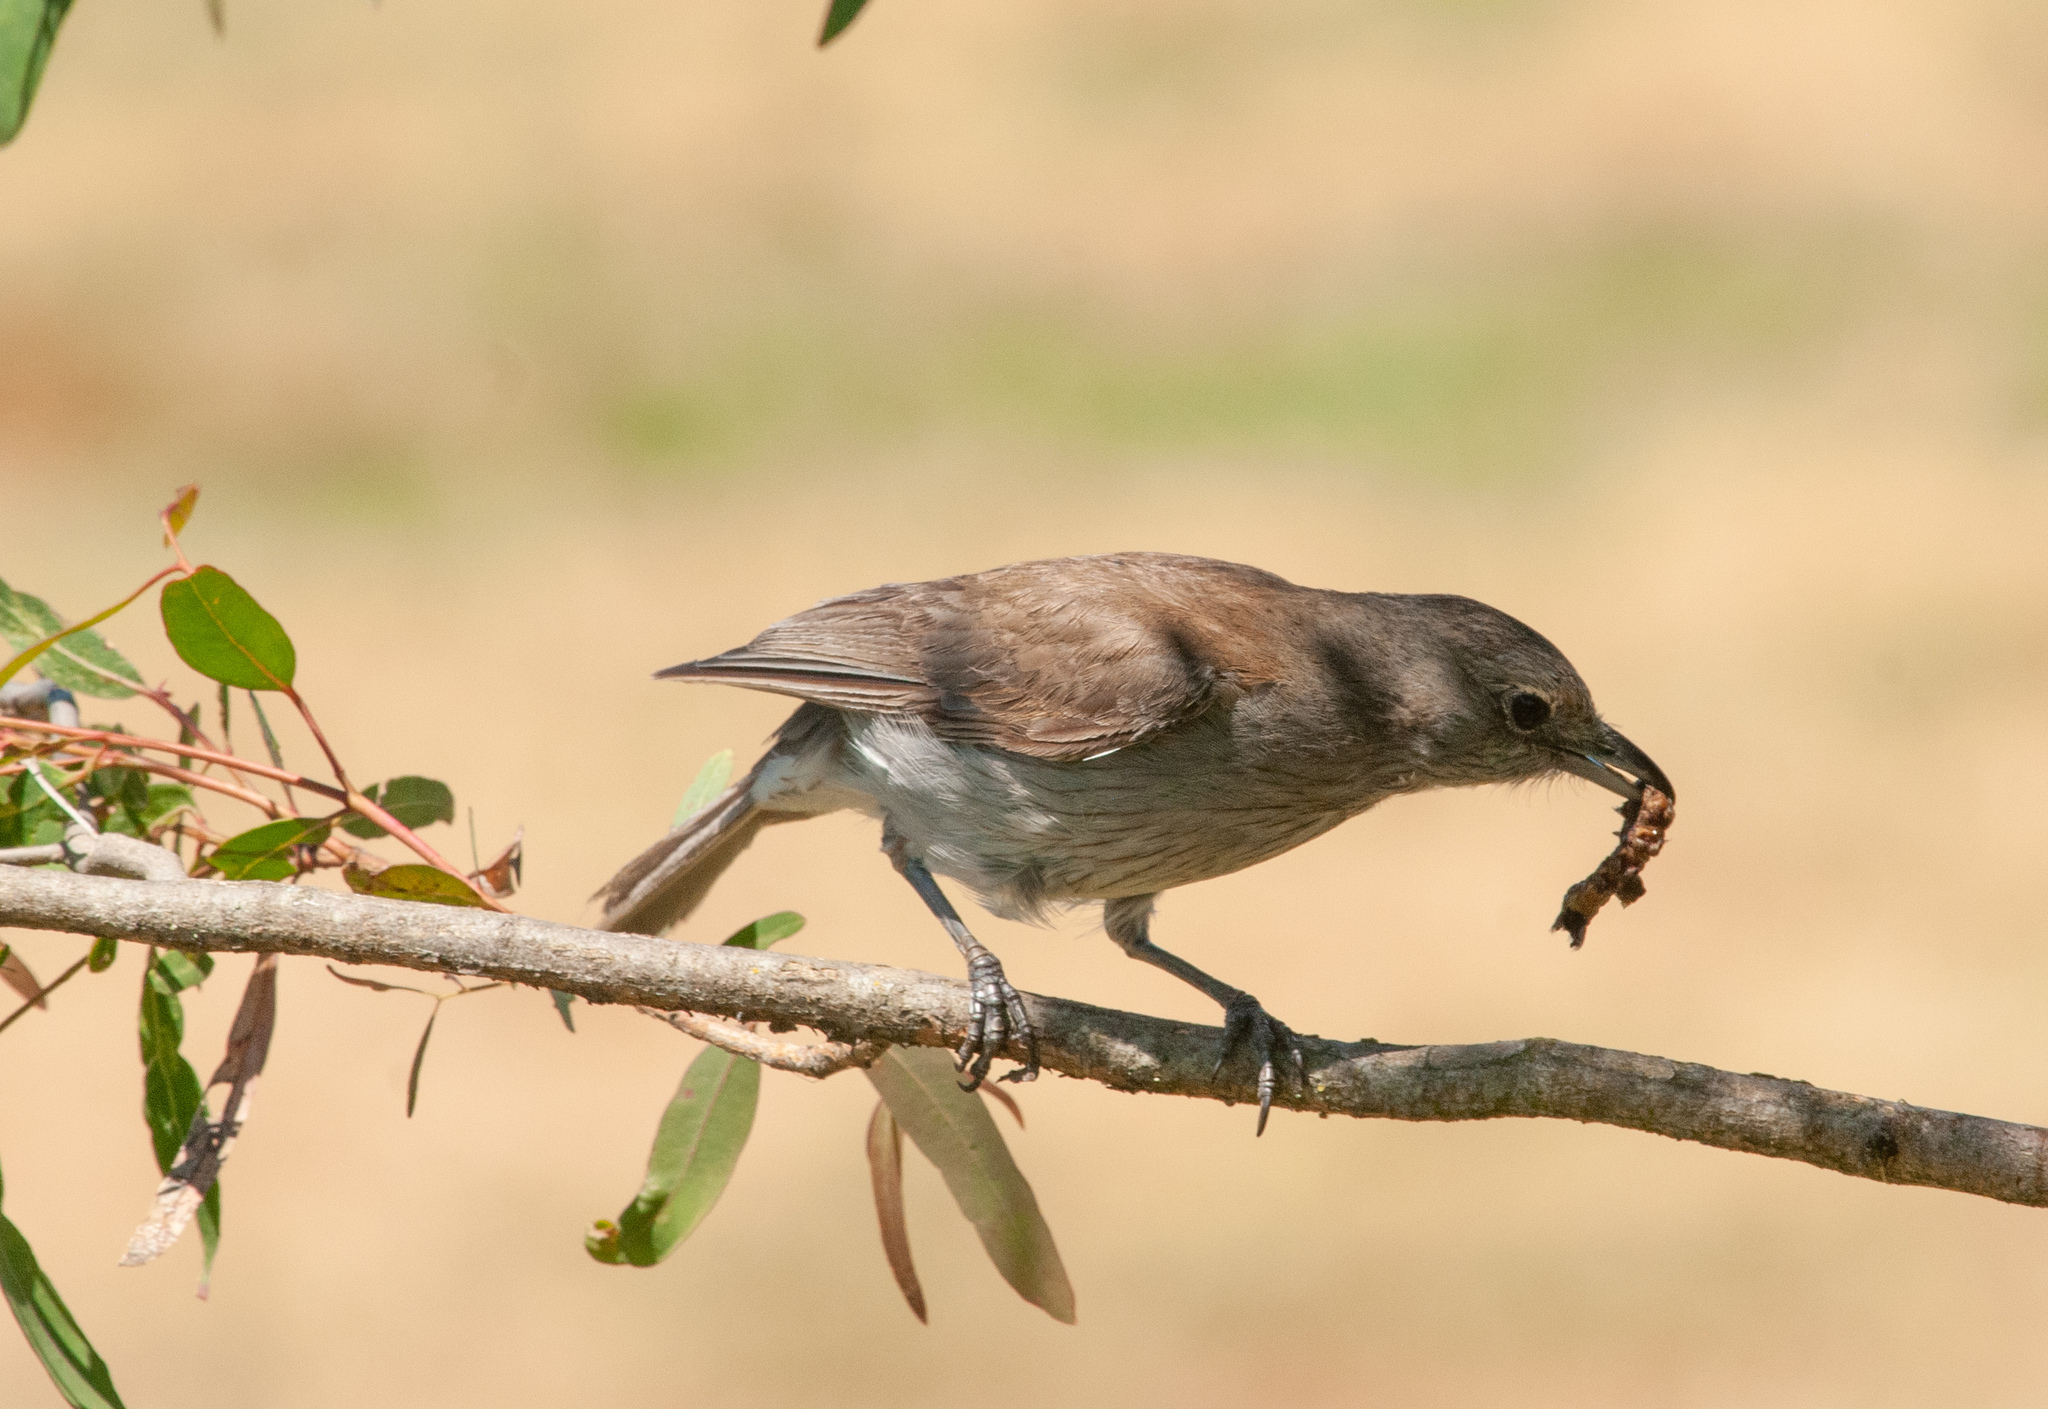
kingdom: Animalia
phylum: Chordata
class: Aves
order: Passeriformes
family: Pachycephalidae
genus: Colluricincla
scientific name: Colluricincla harmonica
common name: Grey shrikethrush
